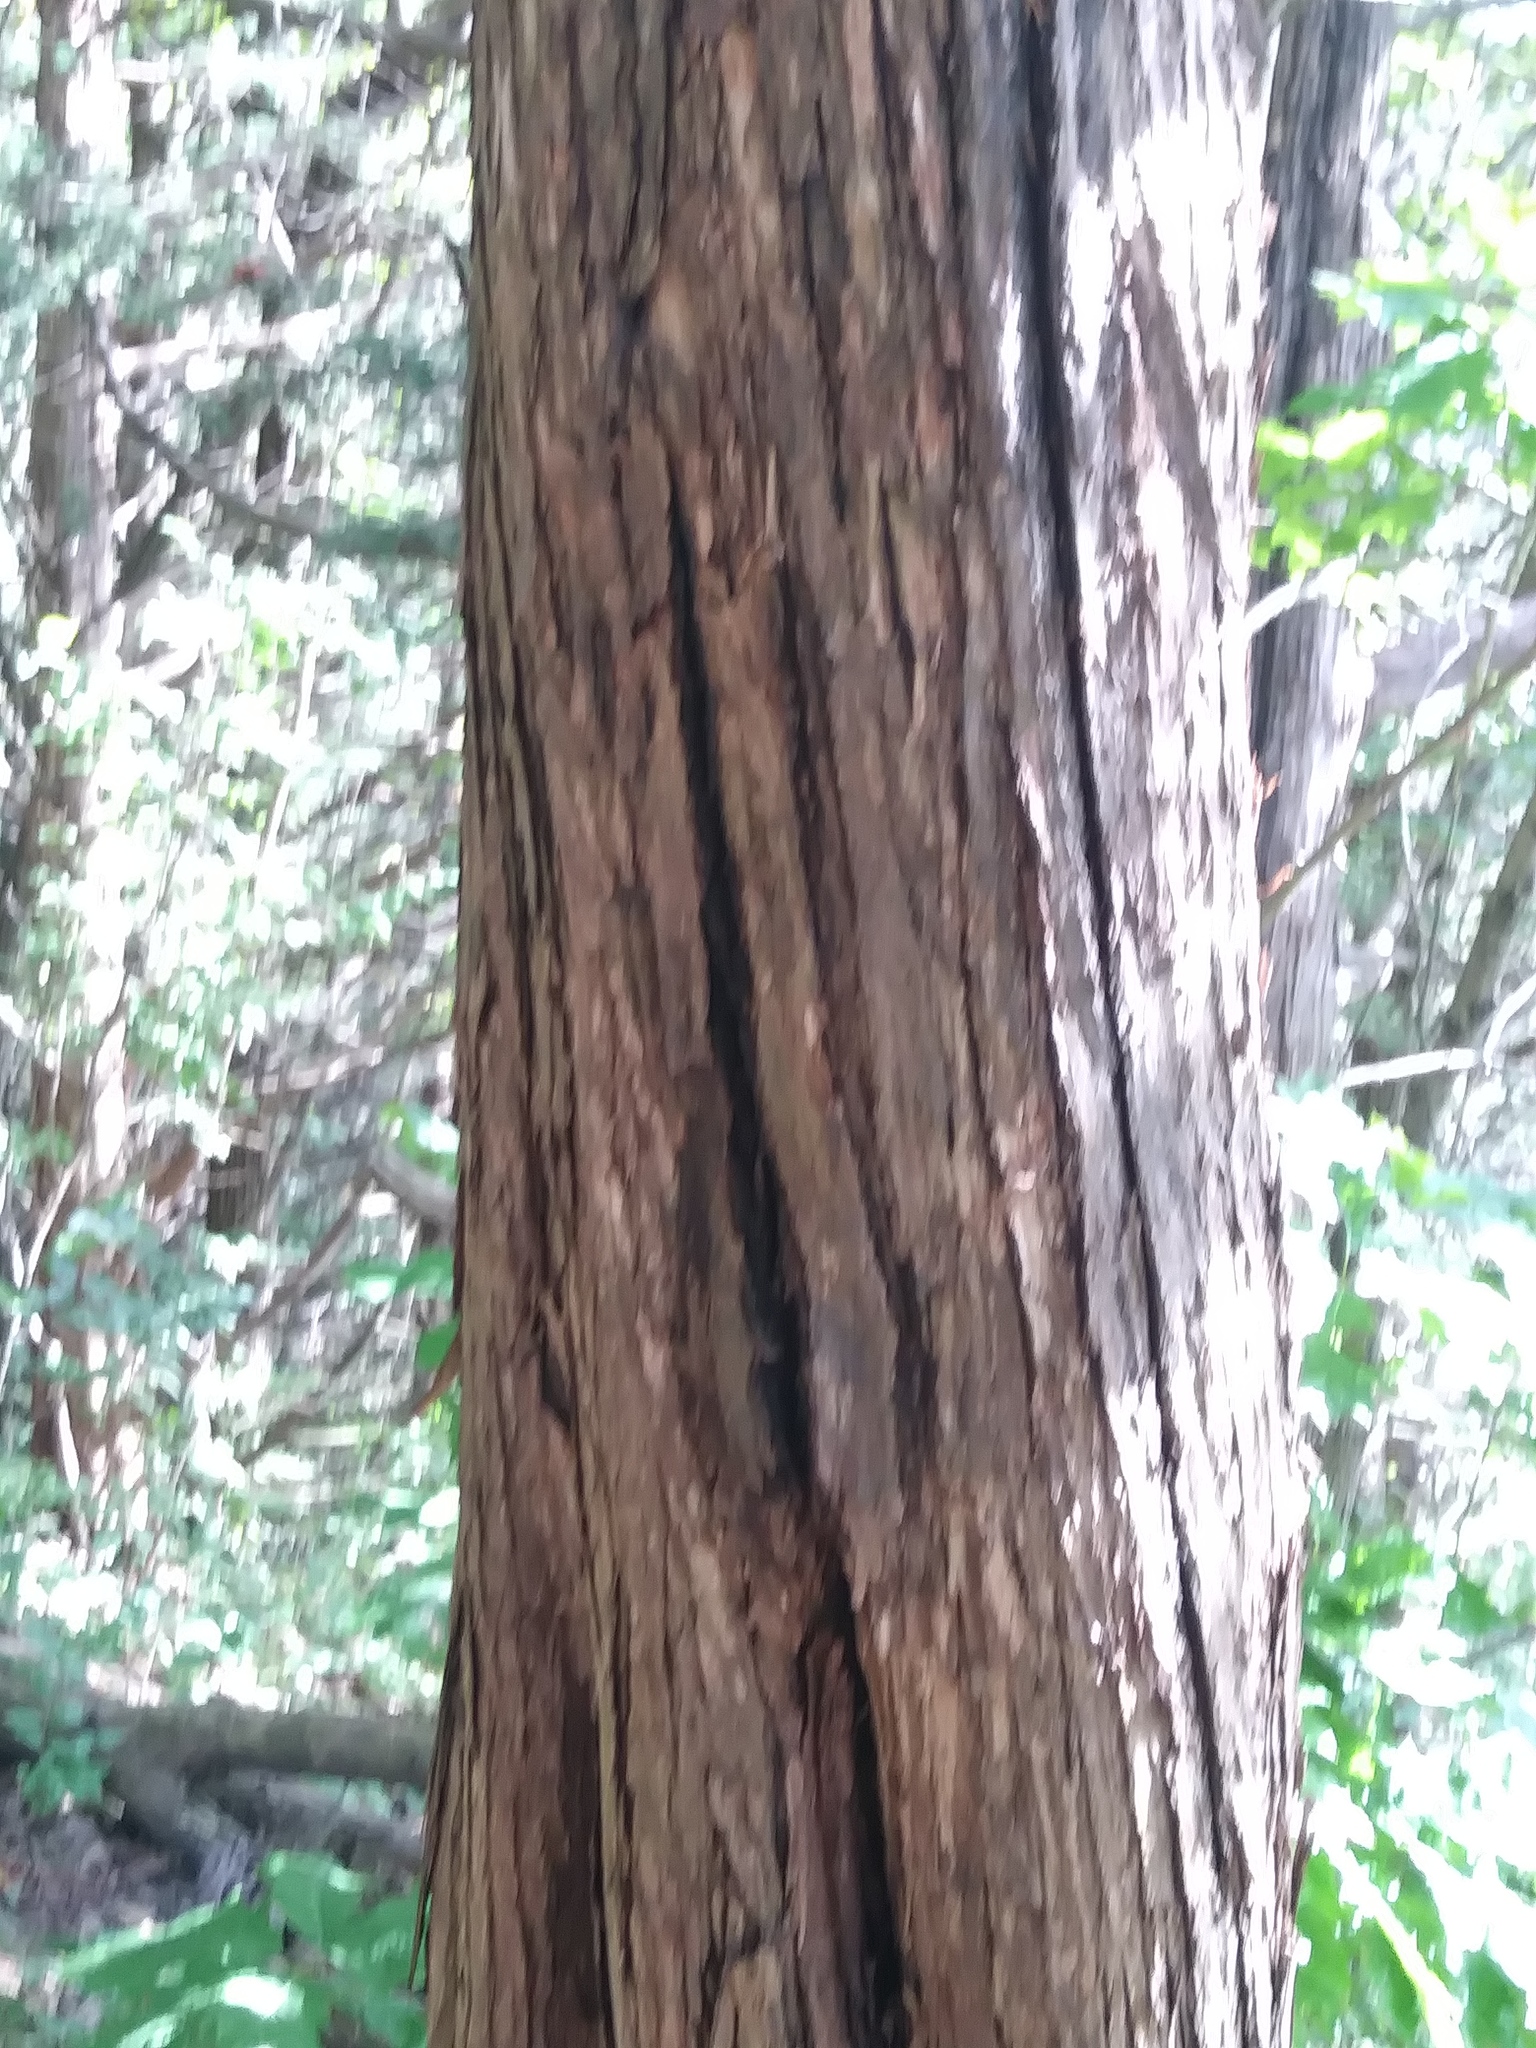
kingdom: Plantae
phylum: Tracheophyta
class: Pinopsida
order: Pinales
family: Cupressaceae
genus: Juniperus
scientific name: Juniperus virginiana
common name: Red juniper
